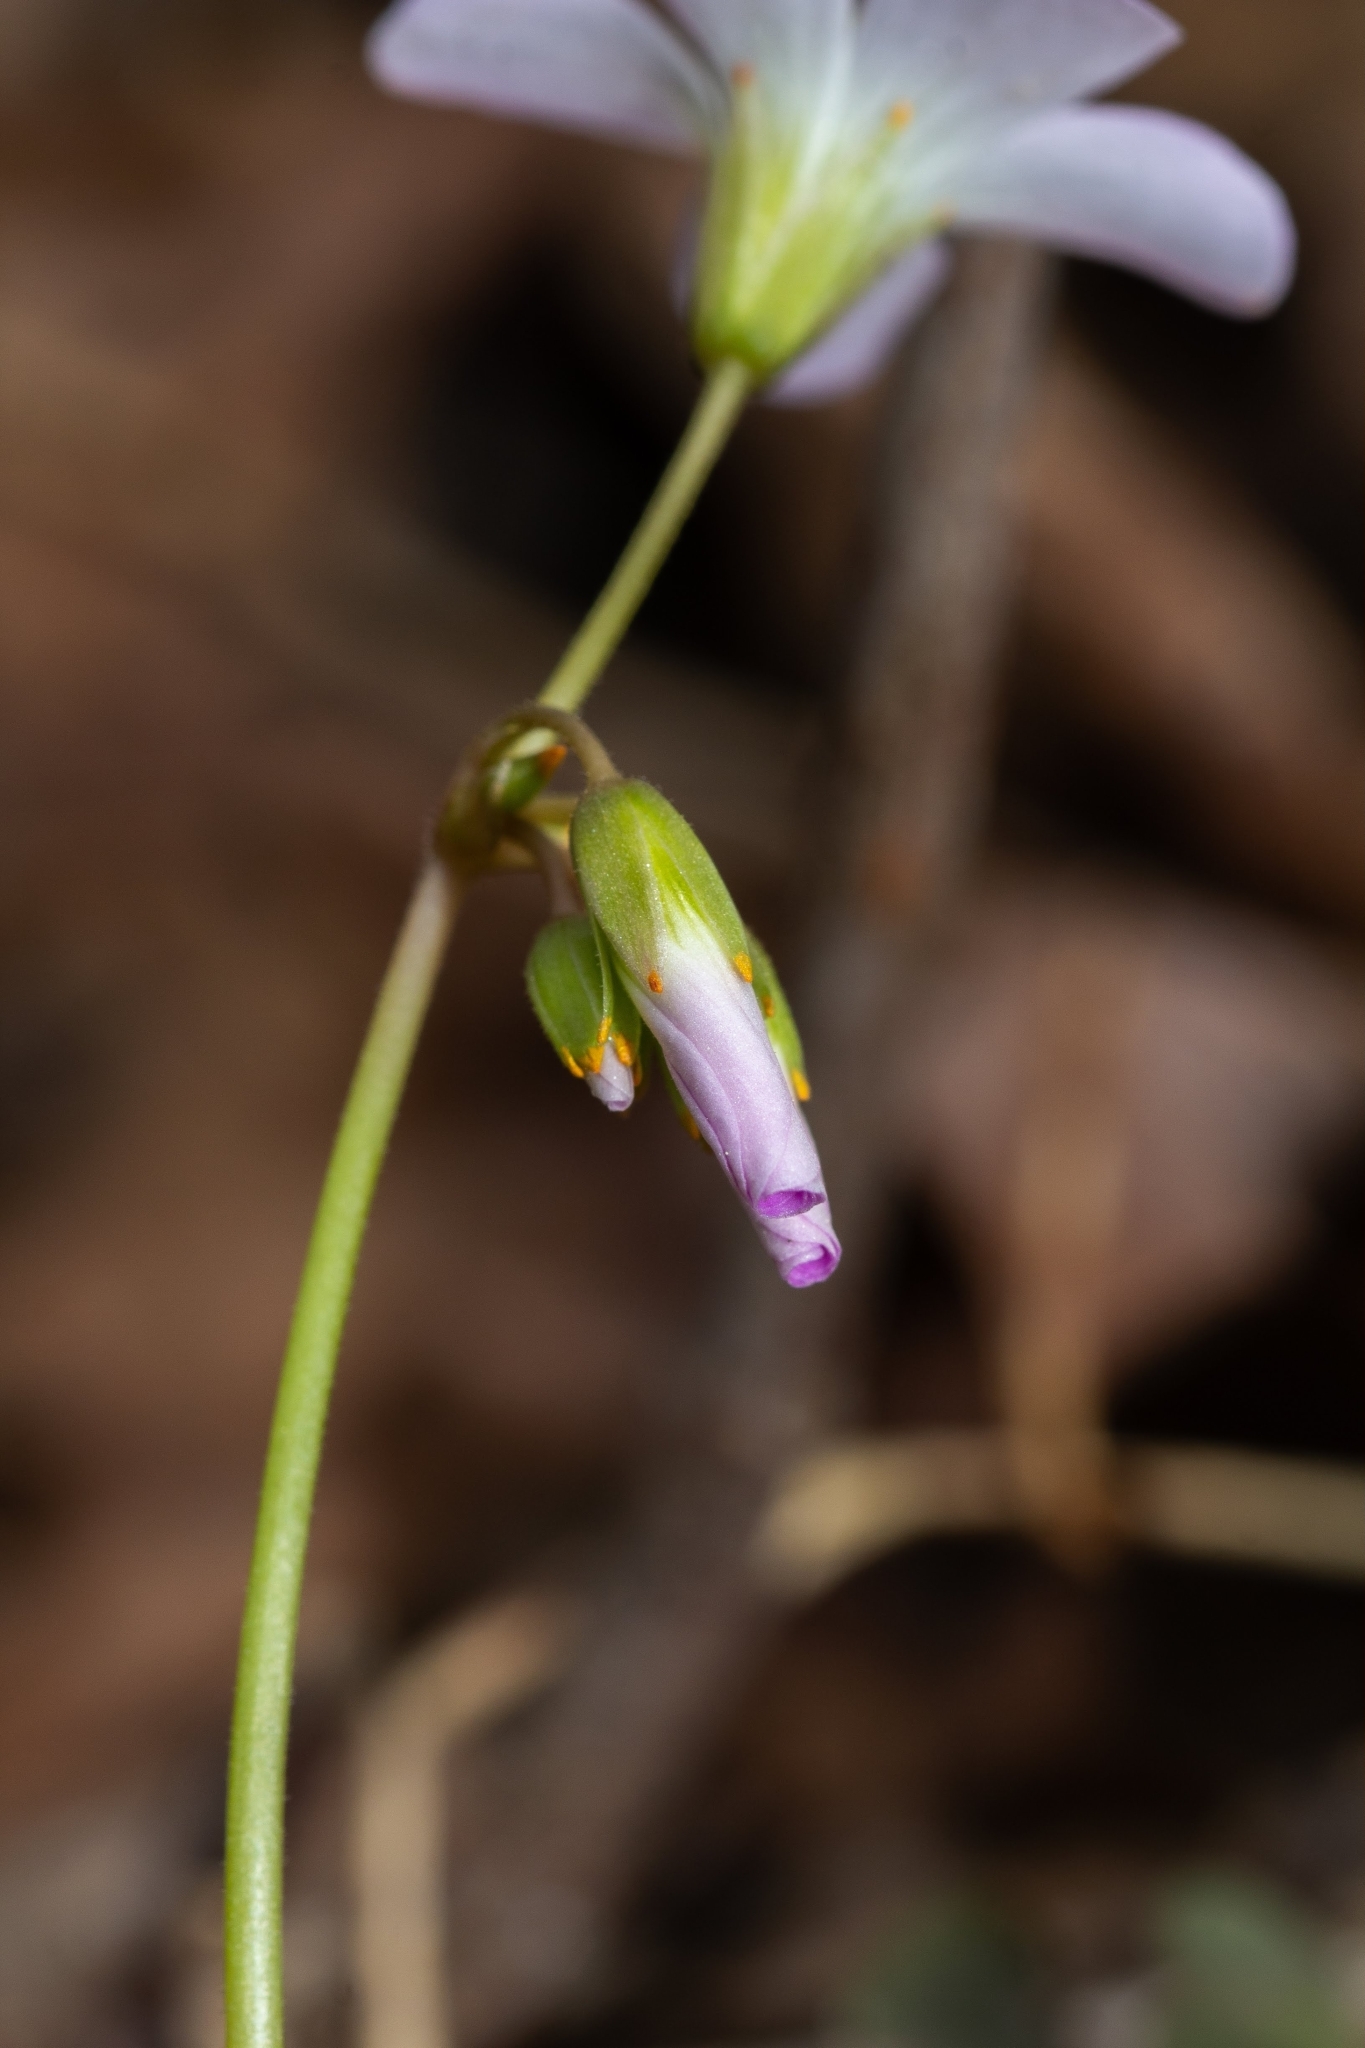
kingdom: Plantae
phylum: Tracheophyta
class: Magnoliopsida
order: Oxalidales
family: Oxalidaceae
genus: Oxalis
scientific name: Oxalis violacea
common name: Violet wood-sorrel
